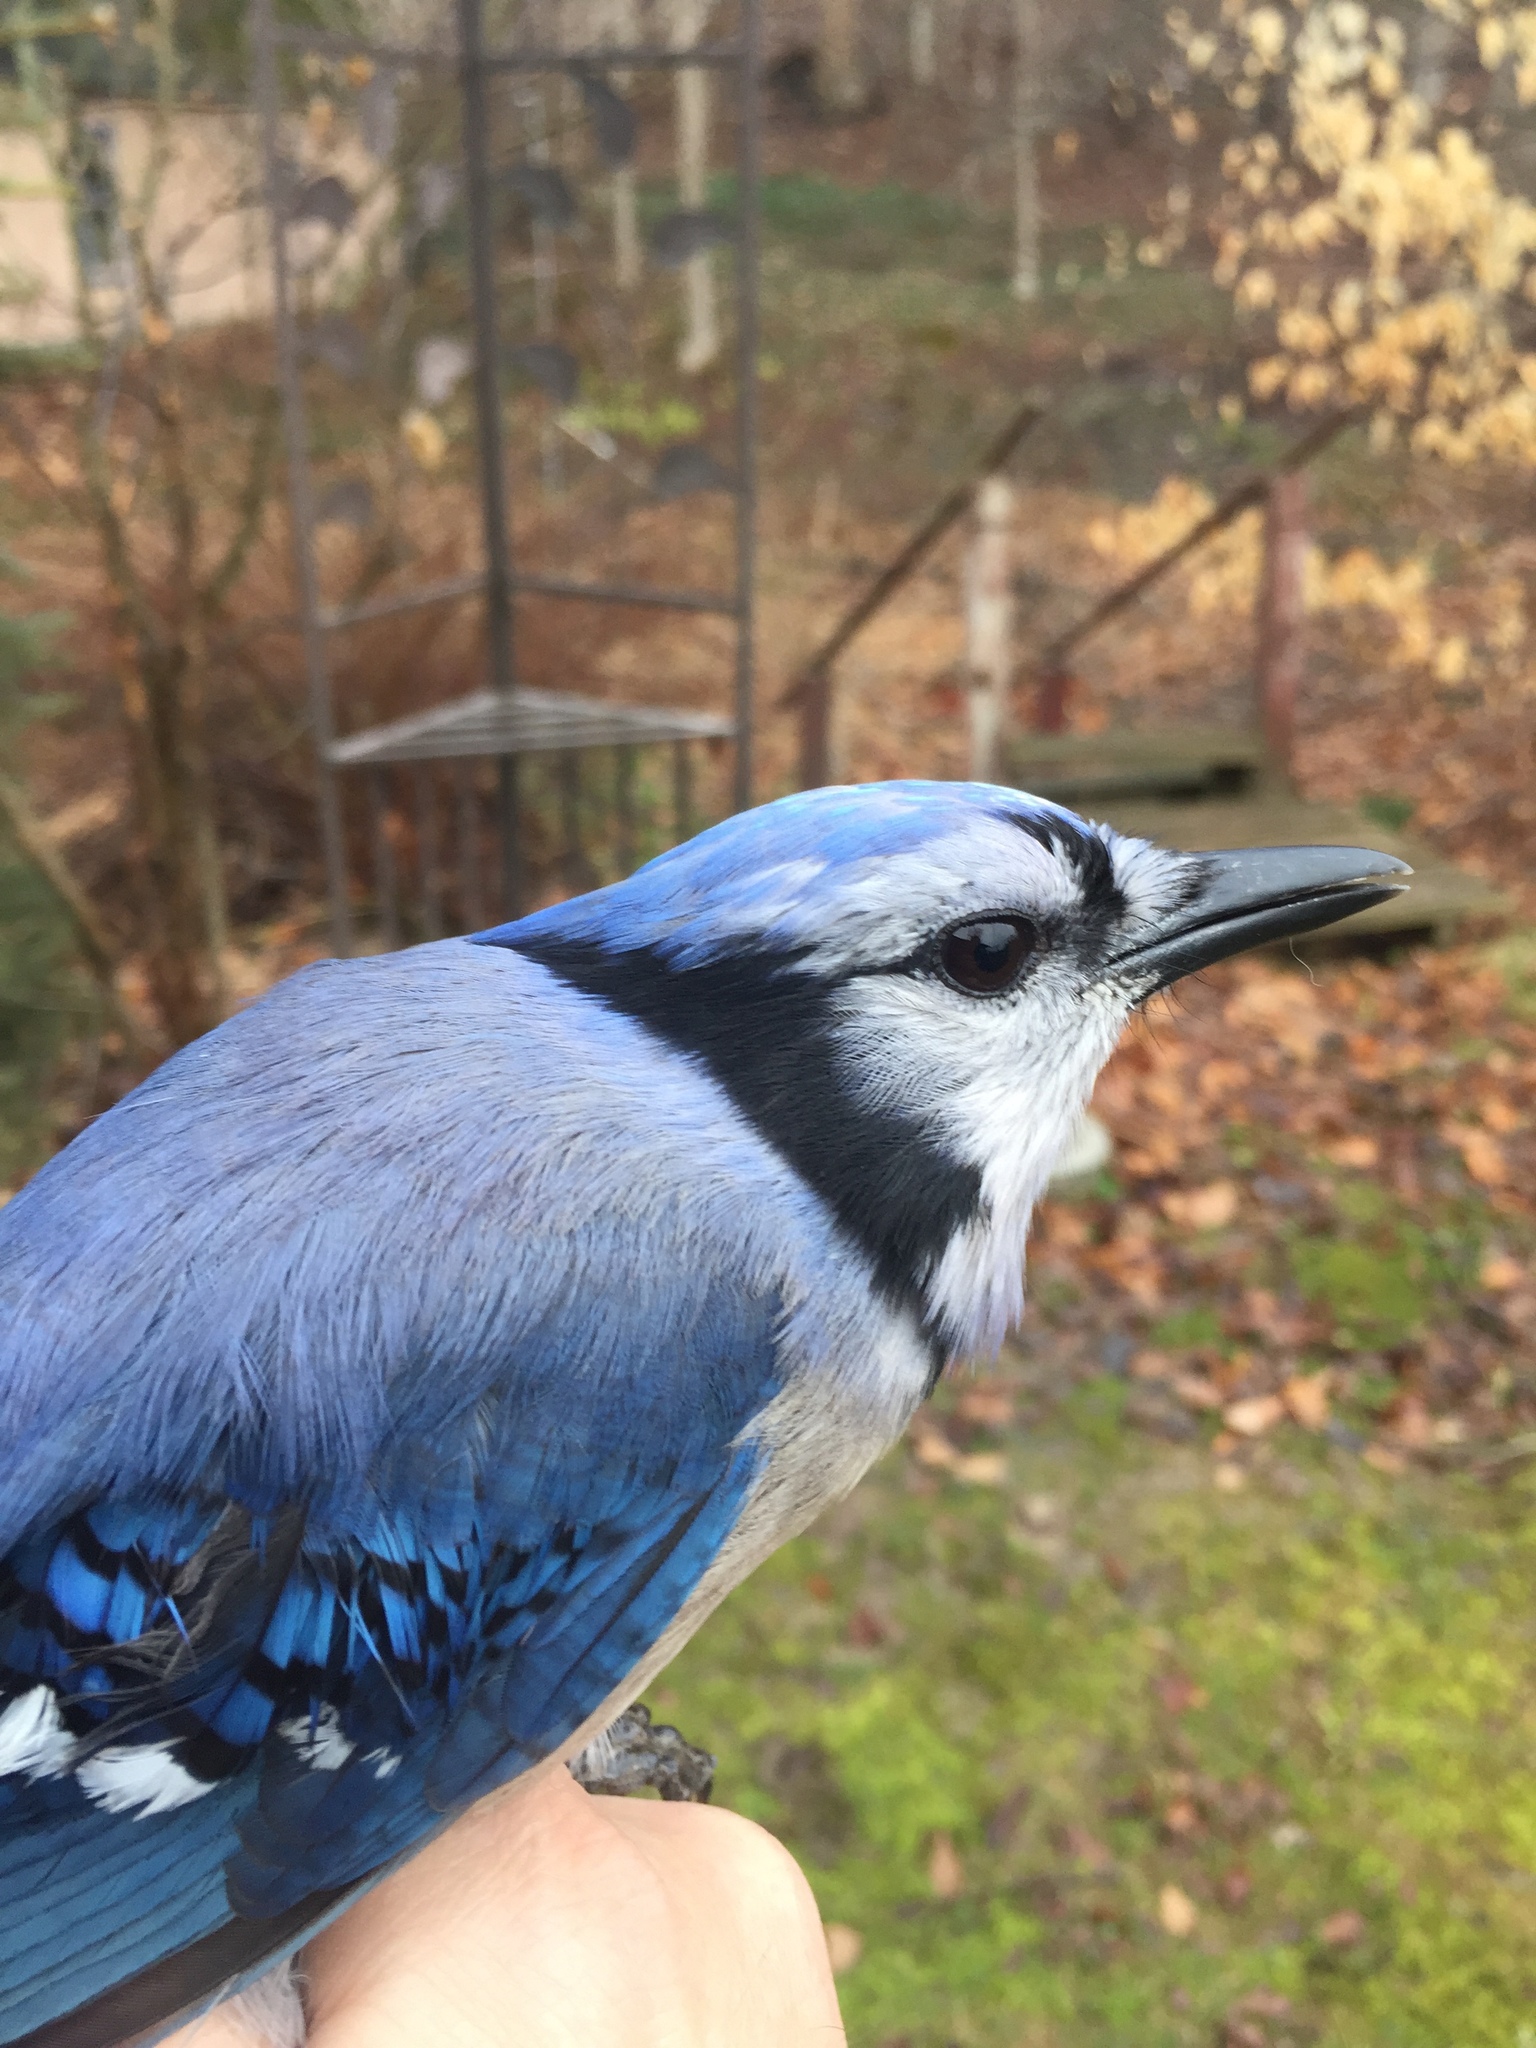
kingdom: Animalia
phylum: Chordata
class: Aves
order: Passeriformes
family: Corvidae
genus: Cyanocitta
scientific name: Cyanocitta cristata
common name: Blue jay
